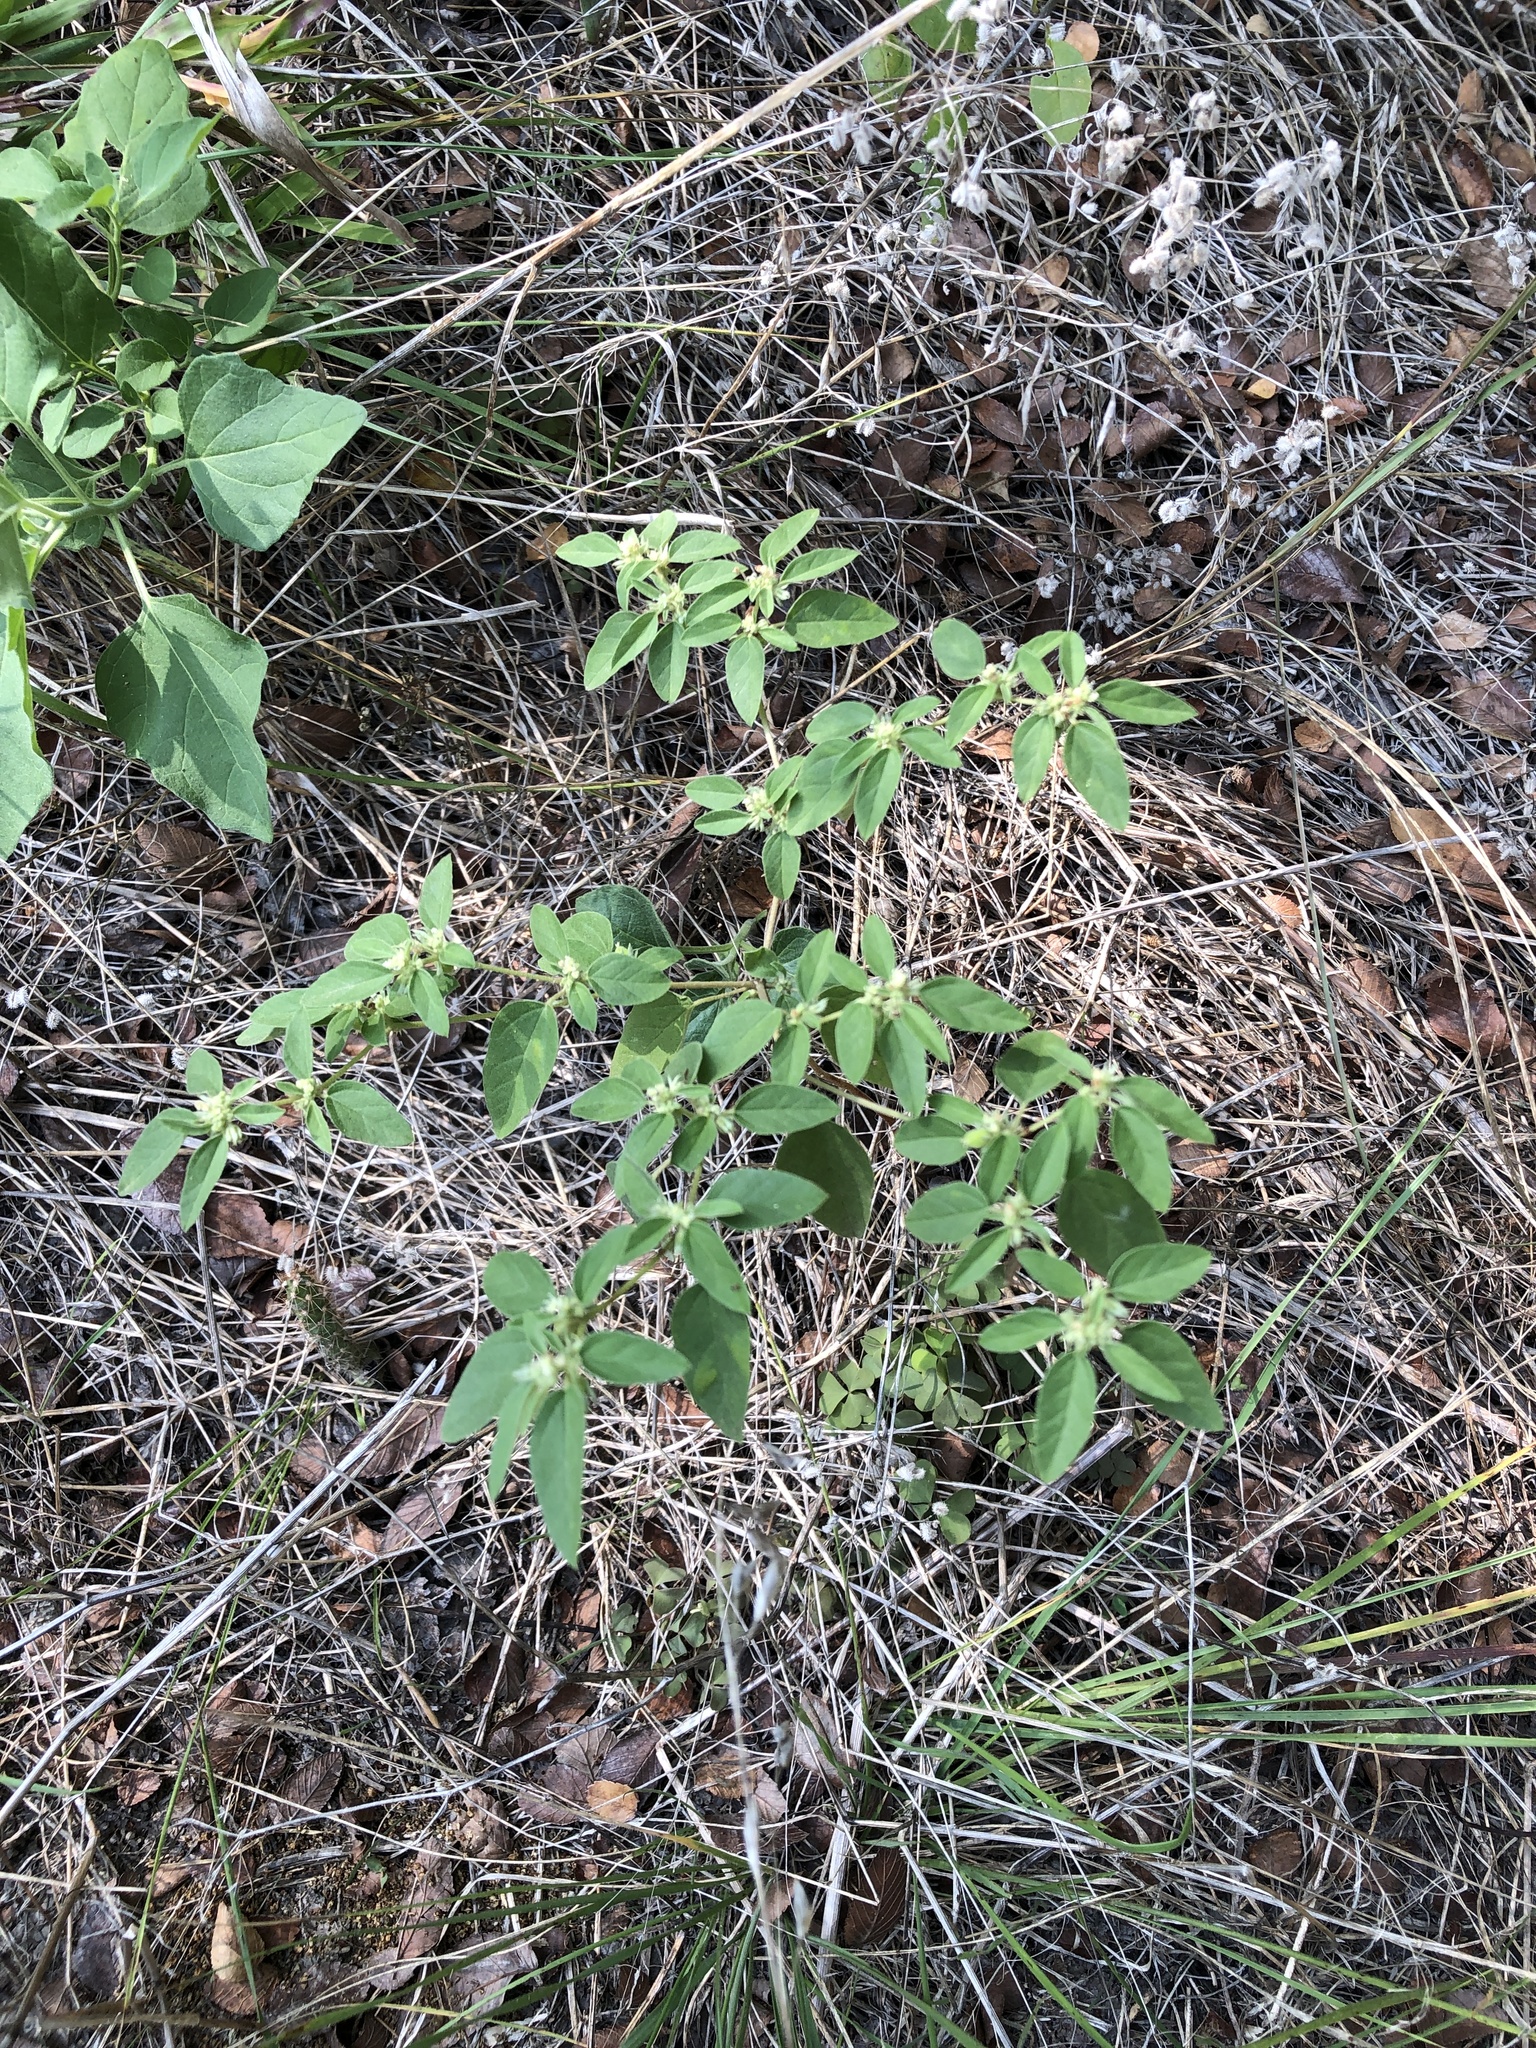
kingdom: Plantae
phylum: Tracheophyta
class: Magnoliopsida
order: Malpighiales
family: Euphorbiaceae
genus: Croton
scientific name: Croton monanthogynus
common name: One-seed croton
